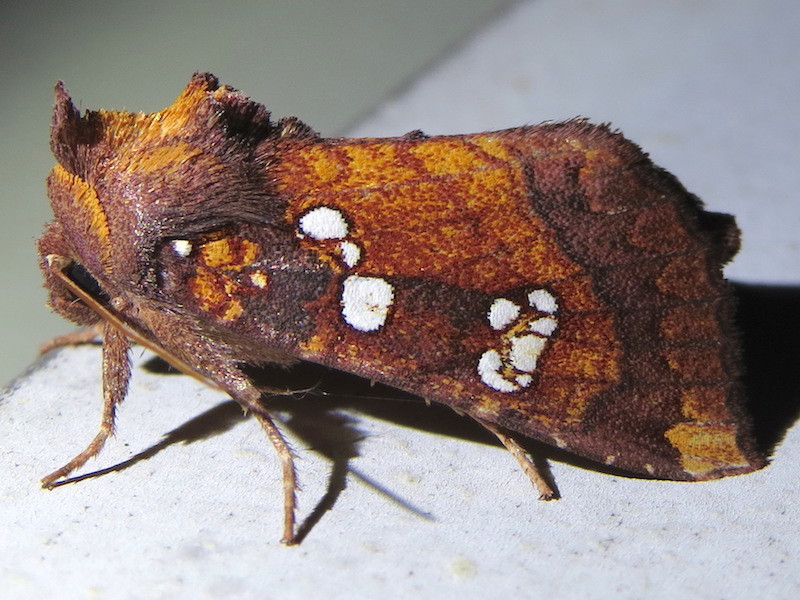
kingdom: Animalia
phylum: Arthropoda
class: Insecta
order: Lepidoptera
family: Noctuidae
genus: Papaipema
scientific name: Papaipema baptisiae
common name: Wild indigo borer moth
